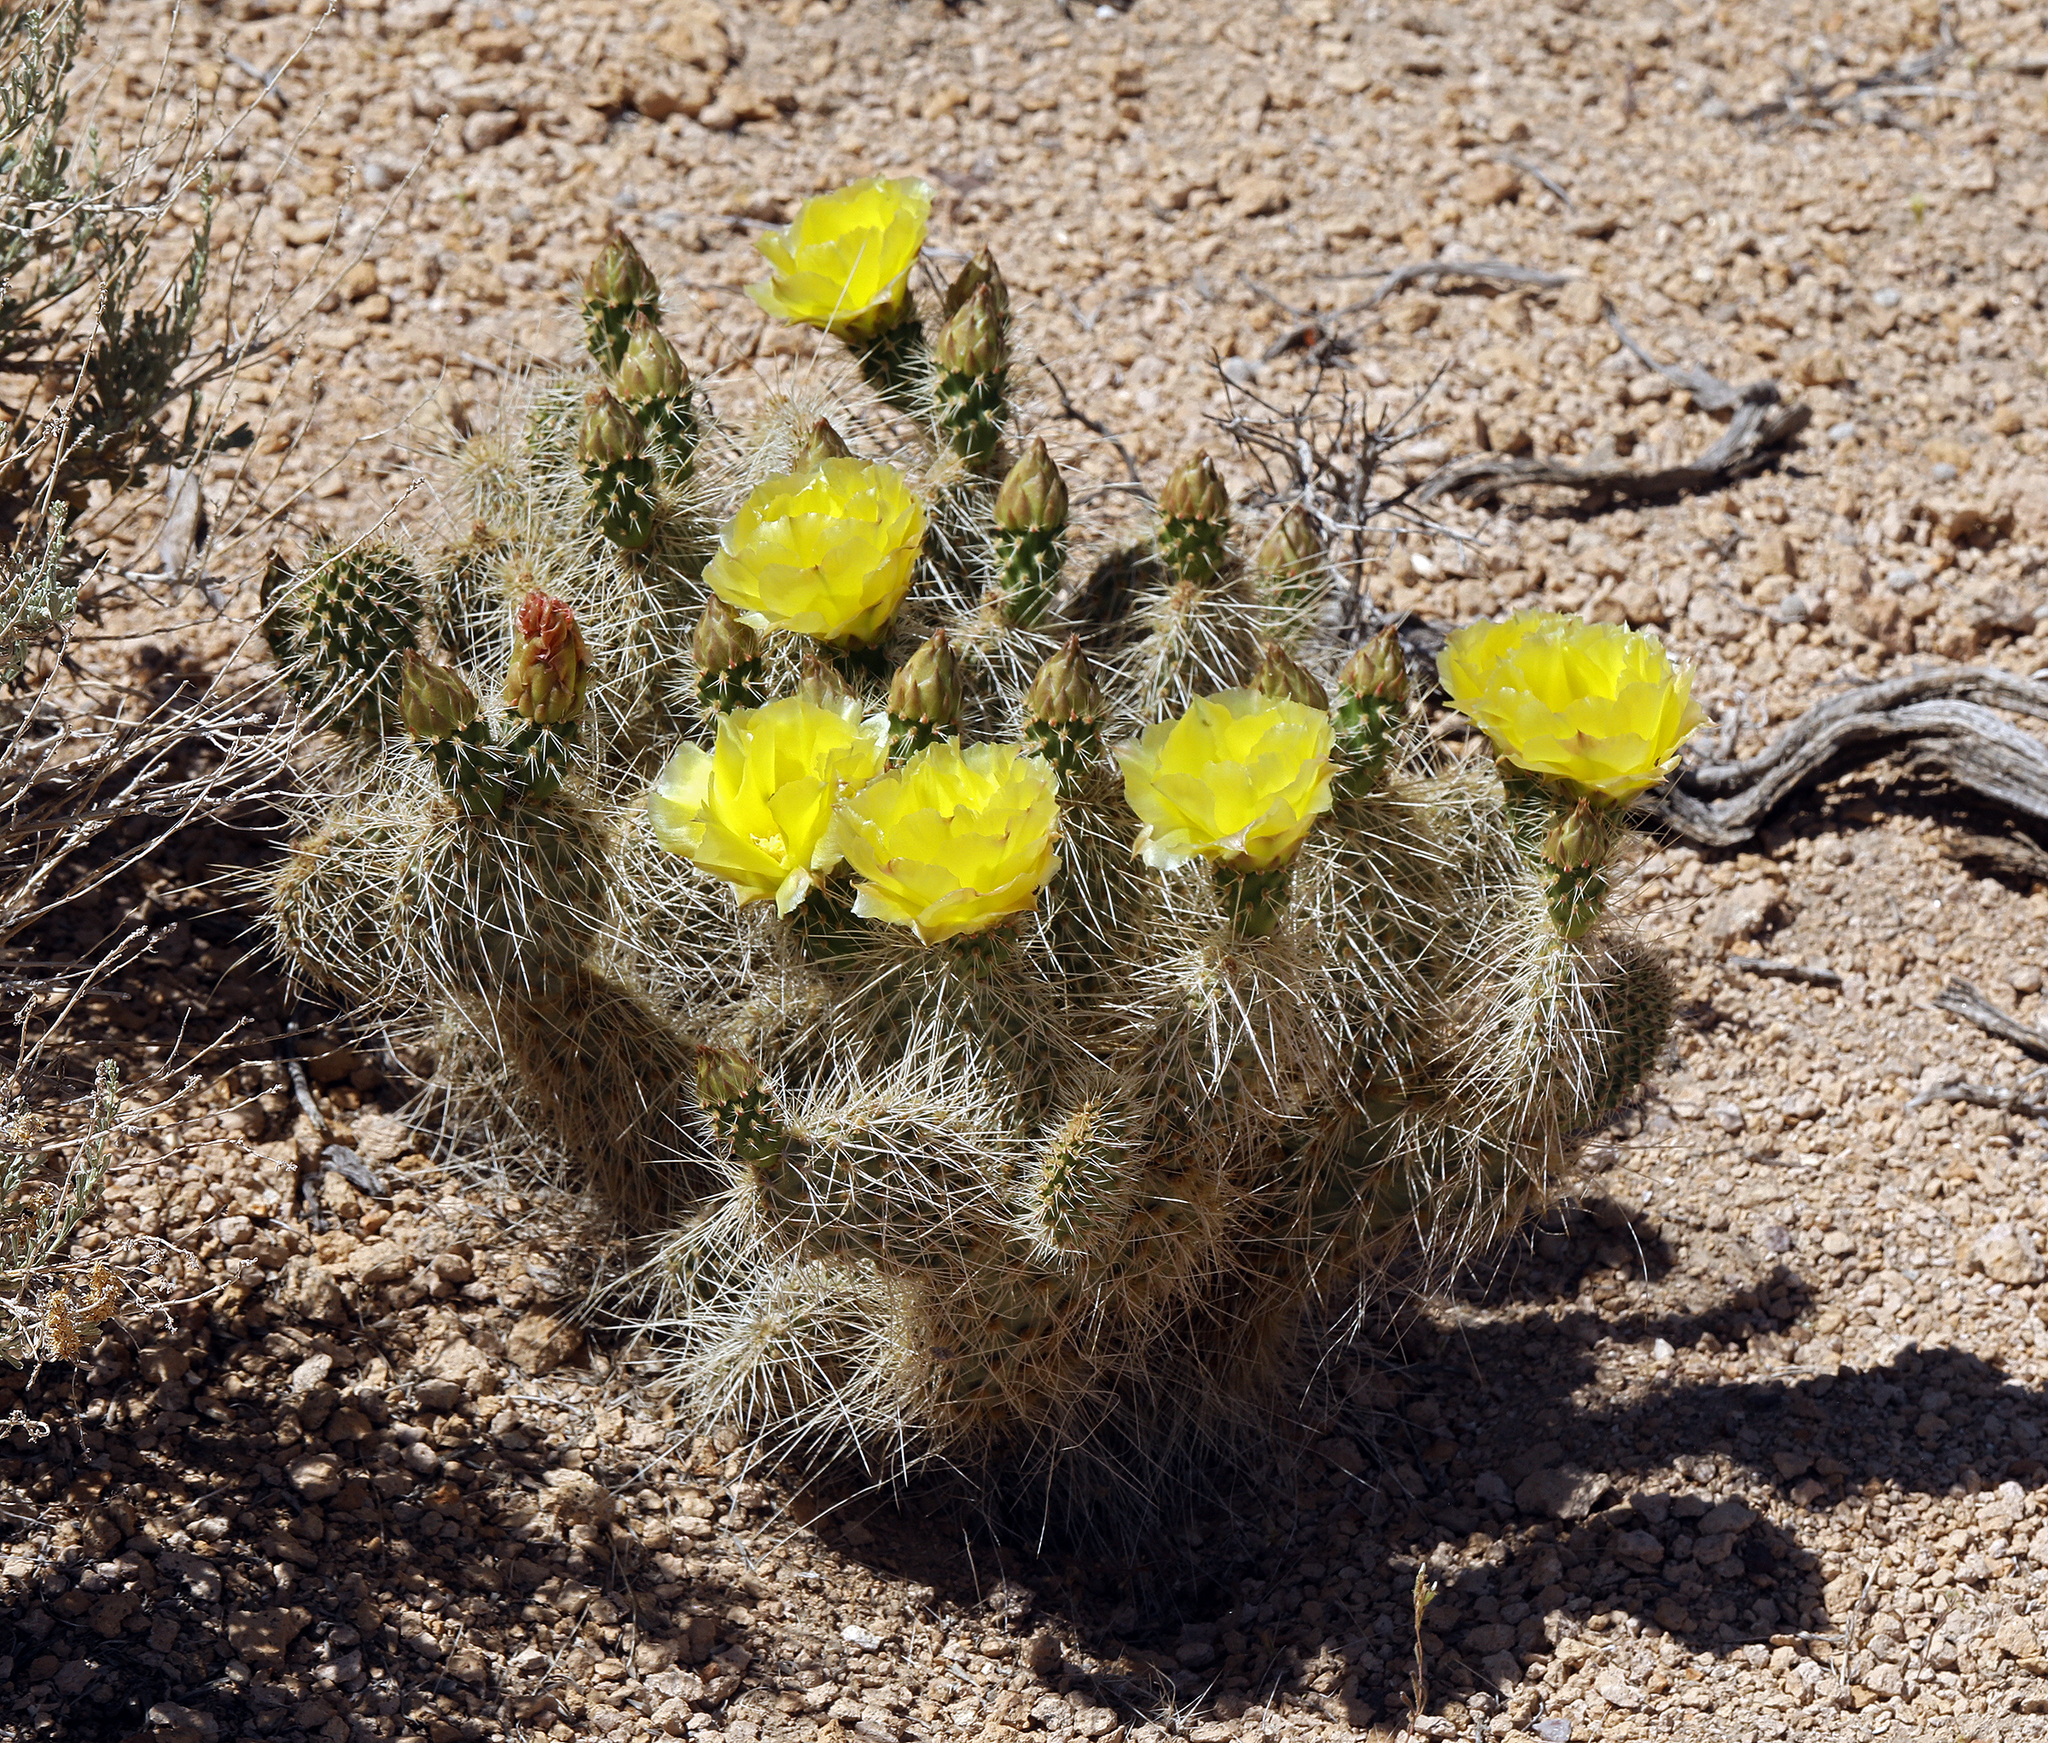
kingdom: Plantae
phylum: Tracheophyta
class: Magnoliopsida
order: Caryophyllales
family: Cactaceae
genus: Opuntia
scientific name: Opuntia polyacantha
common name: Plains prickly-pear
